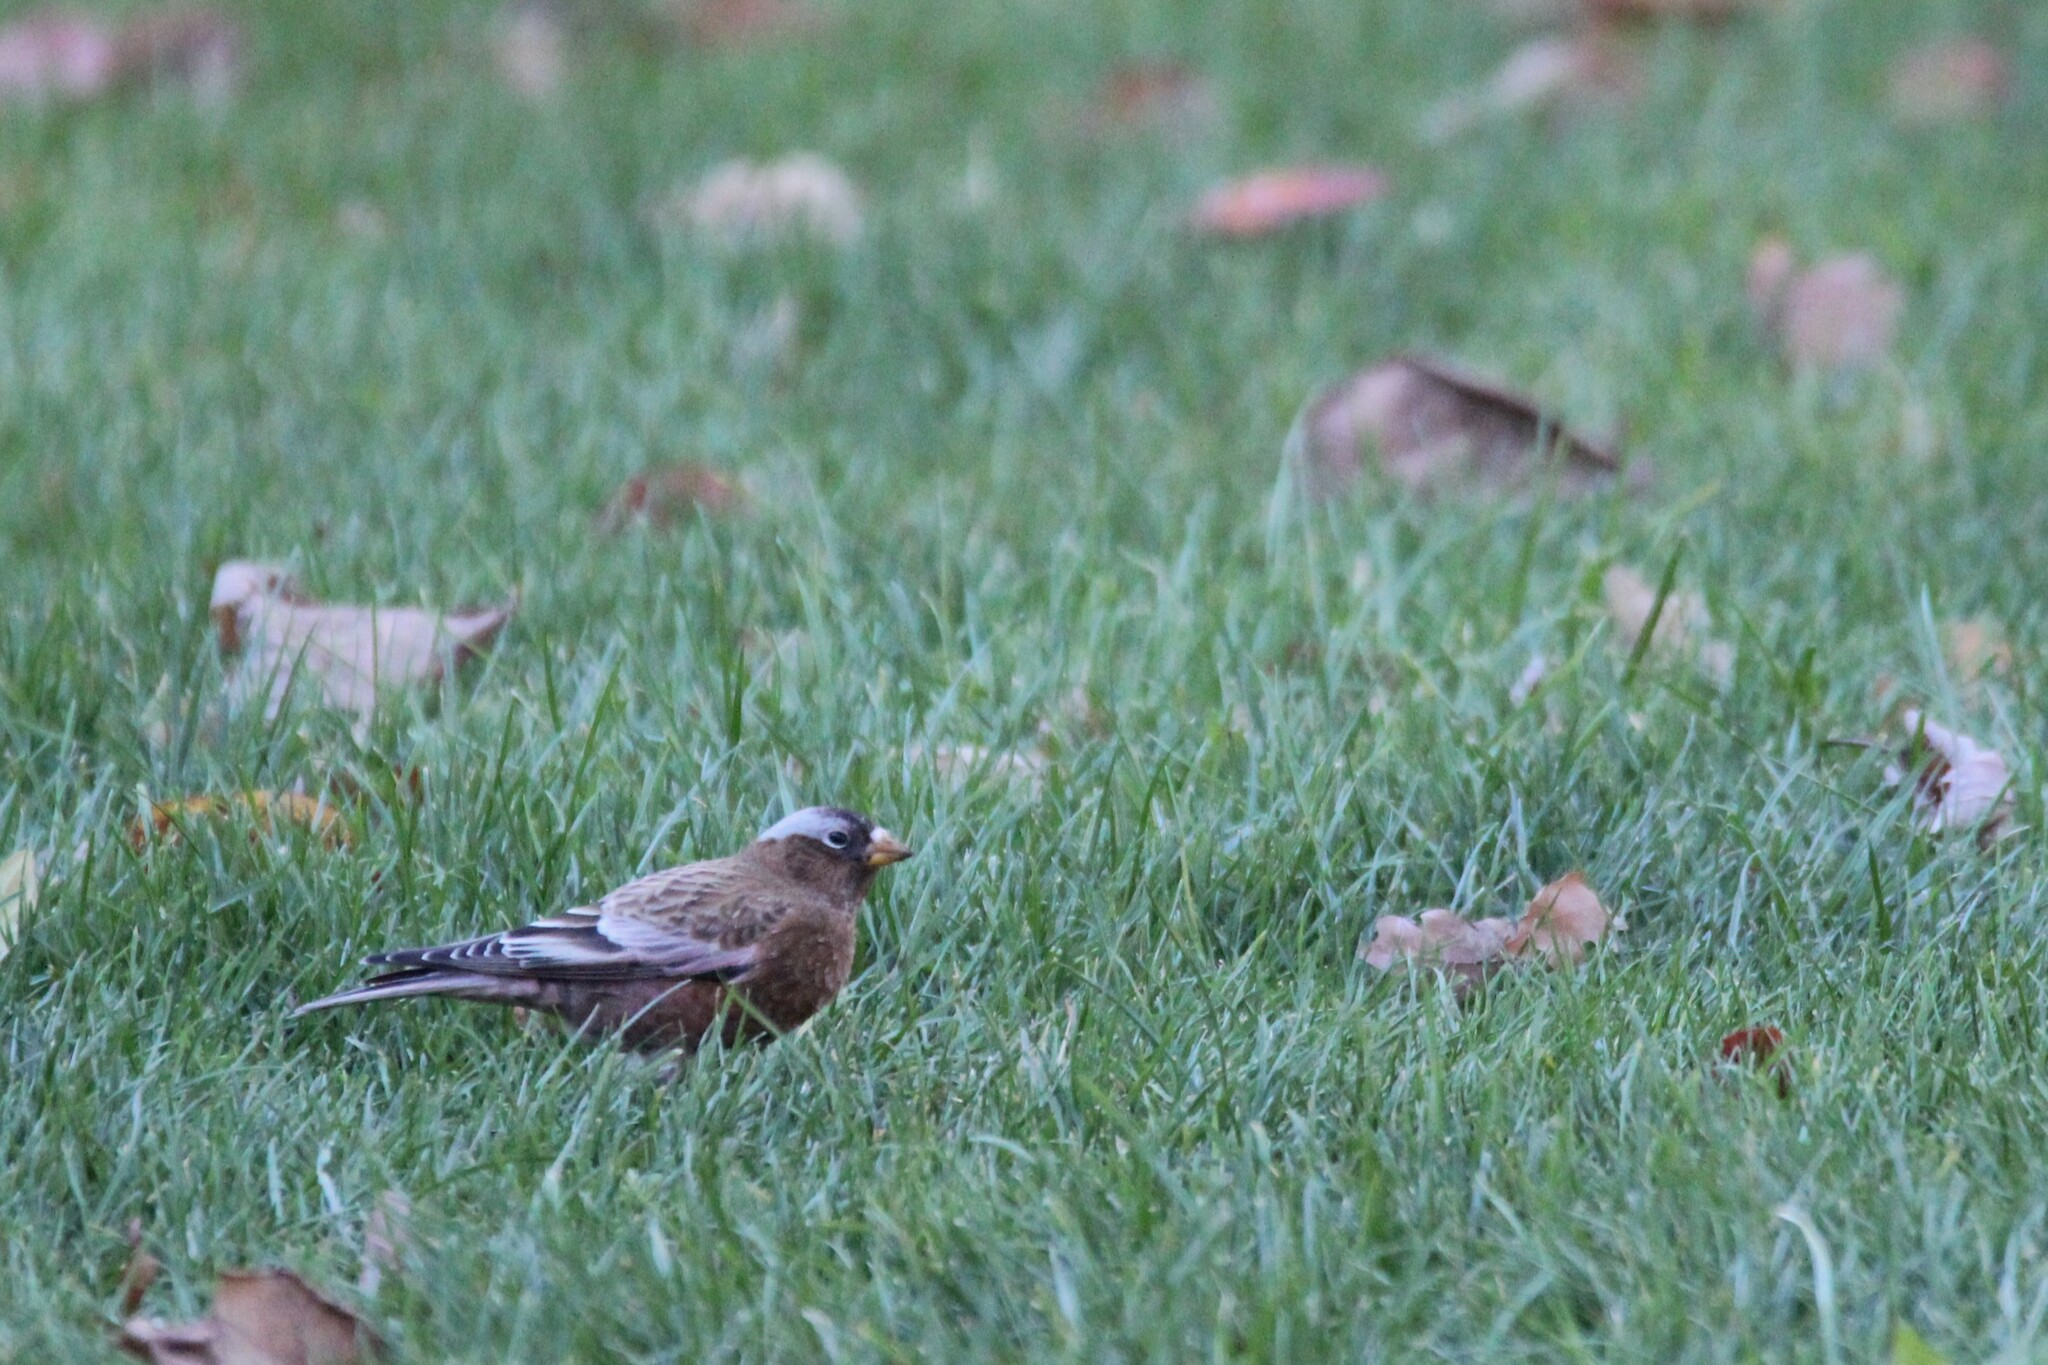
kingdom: Animalia
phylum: Chordata
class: Aves
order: Passeriformes
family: Fringillidae
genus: Leucosticte
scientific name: Leucosticte tephrocotis
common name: Gray-crowned rosy-finch
